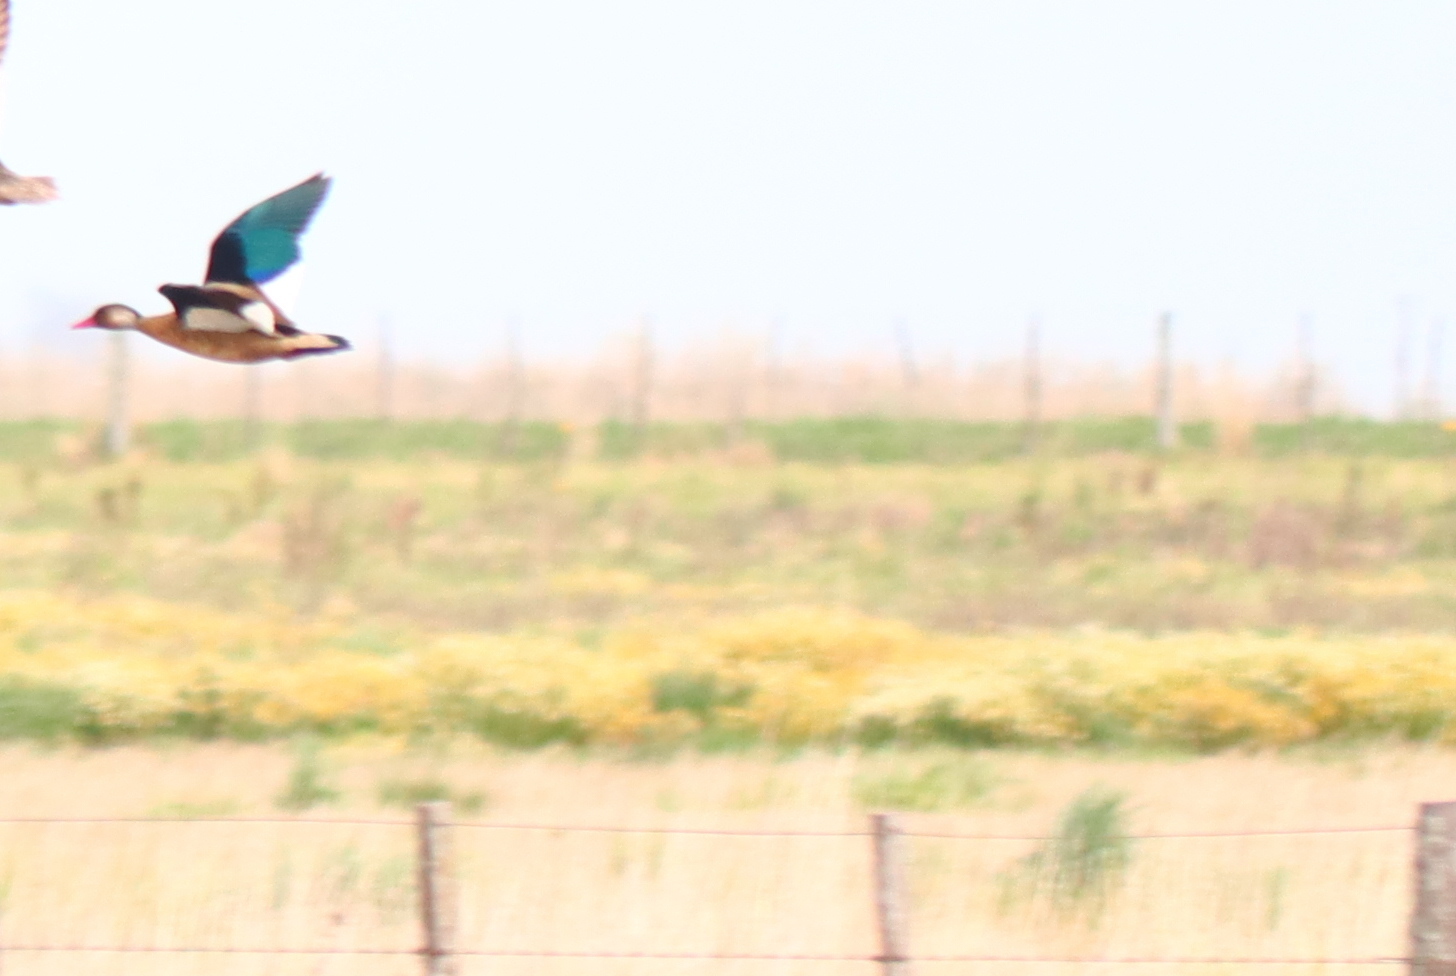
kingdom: Animalia
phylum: Chordata
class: Aves
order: Anseriformes
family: Anatidae
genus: Amazonetta
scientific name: Amazonetta brasiliensis
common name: Brazilian teal
